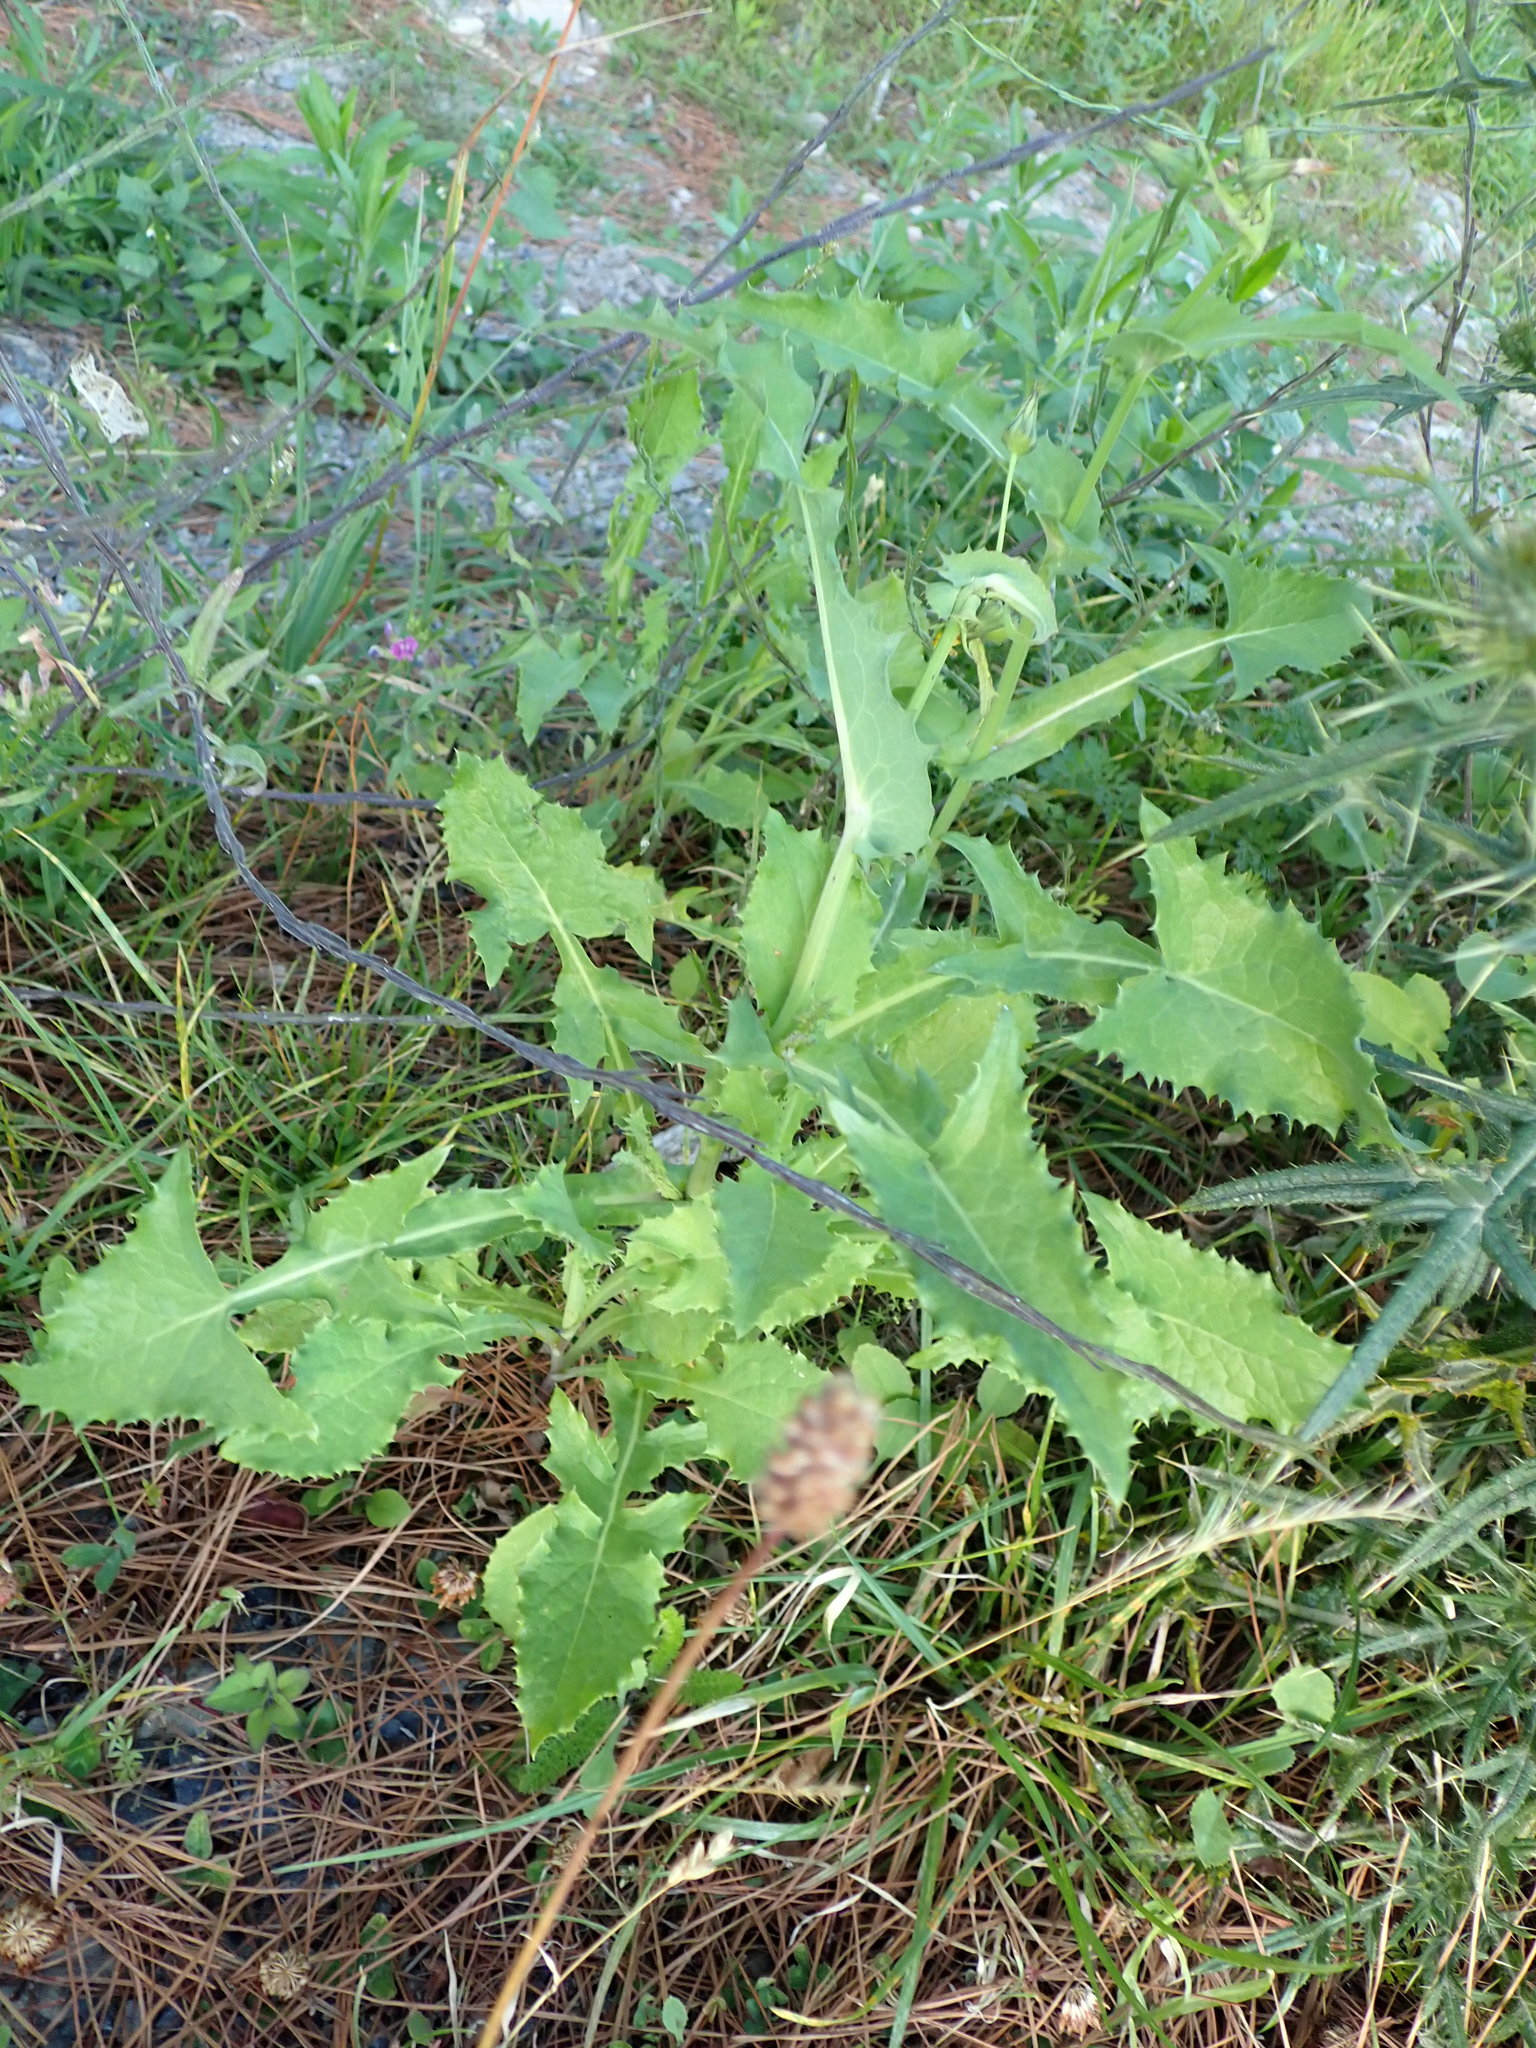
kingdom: Plantae
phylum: Tracheophyta
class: Magnoliopsida
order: Asterales
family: Asteraceae
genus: Sonchus
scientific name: Sonchus oleraceus
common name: Common sowthistle
